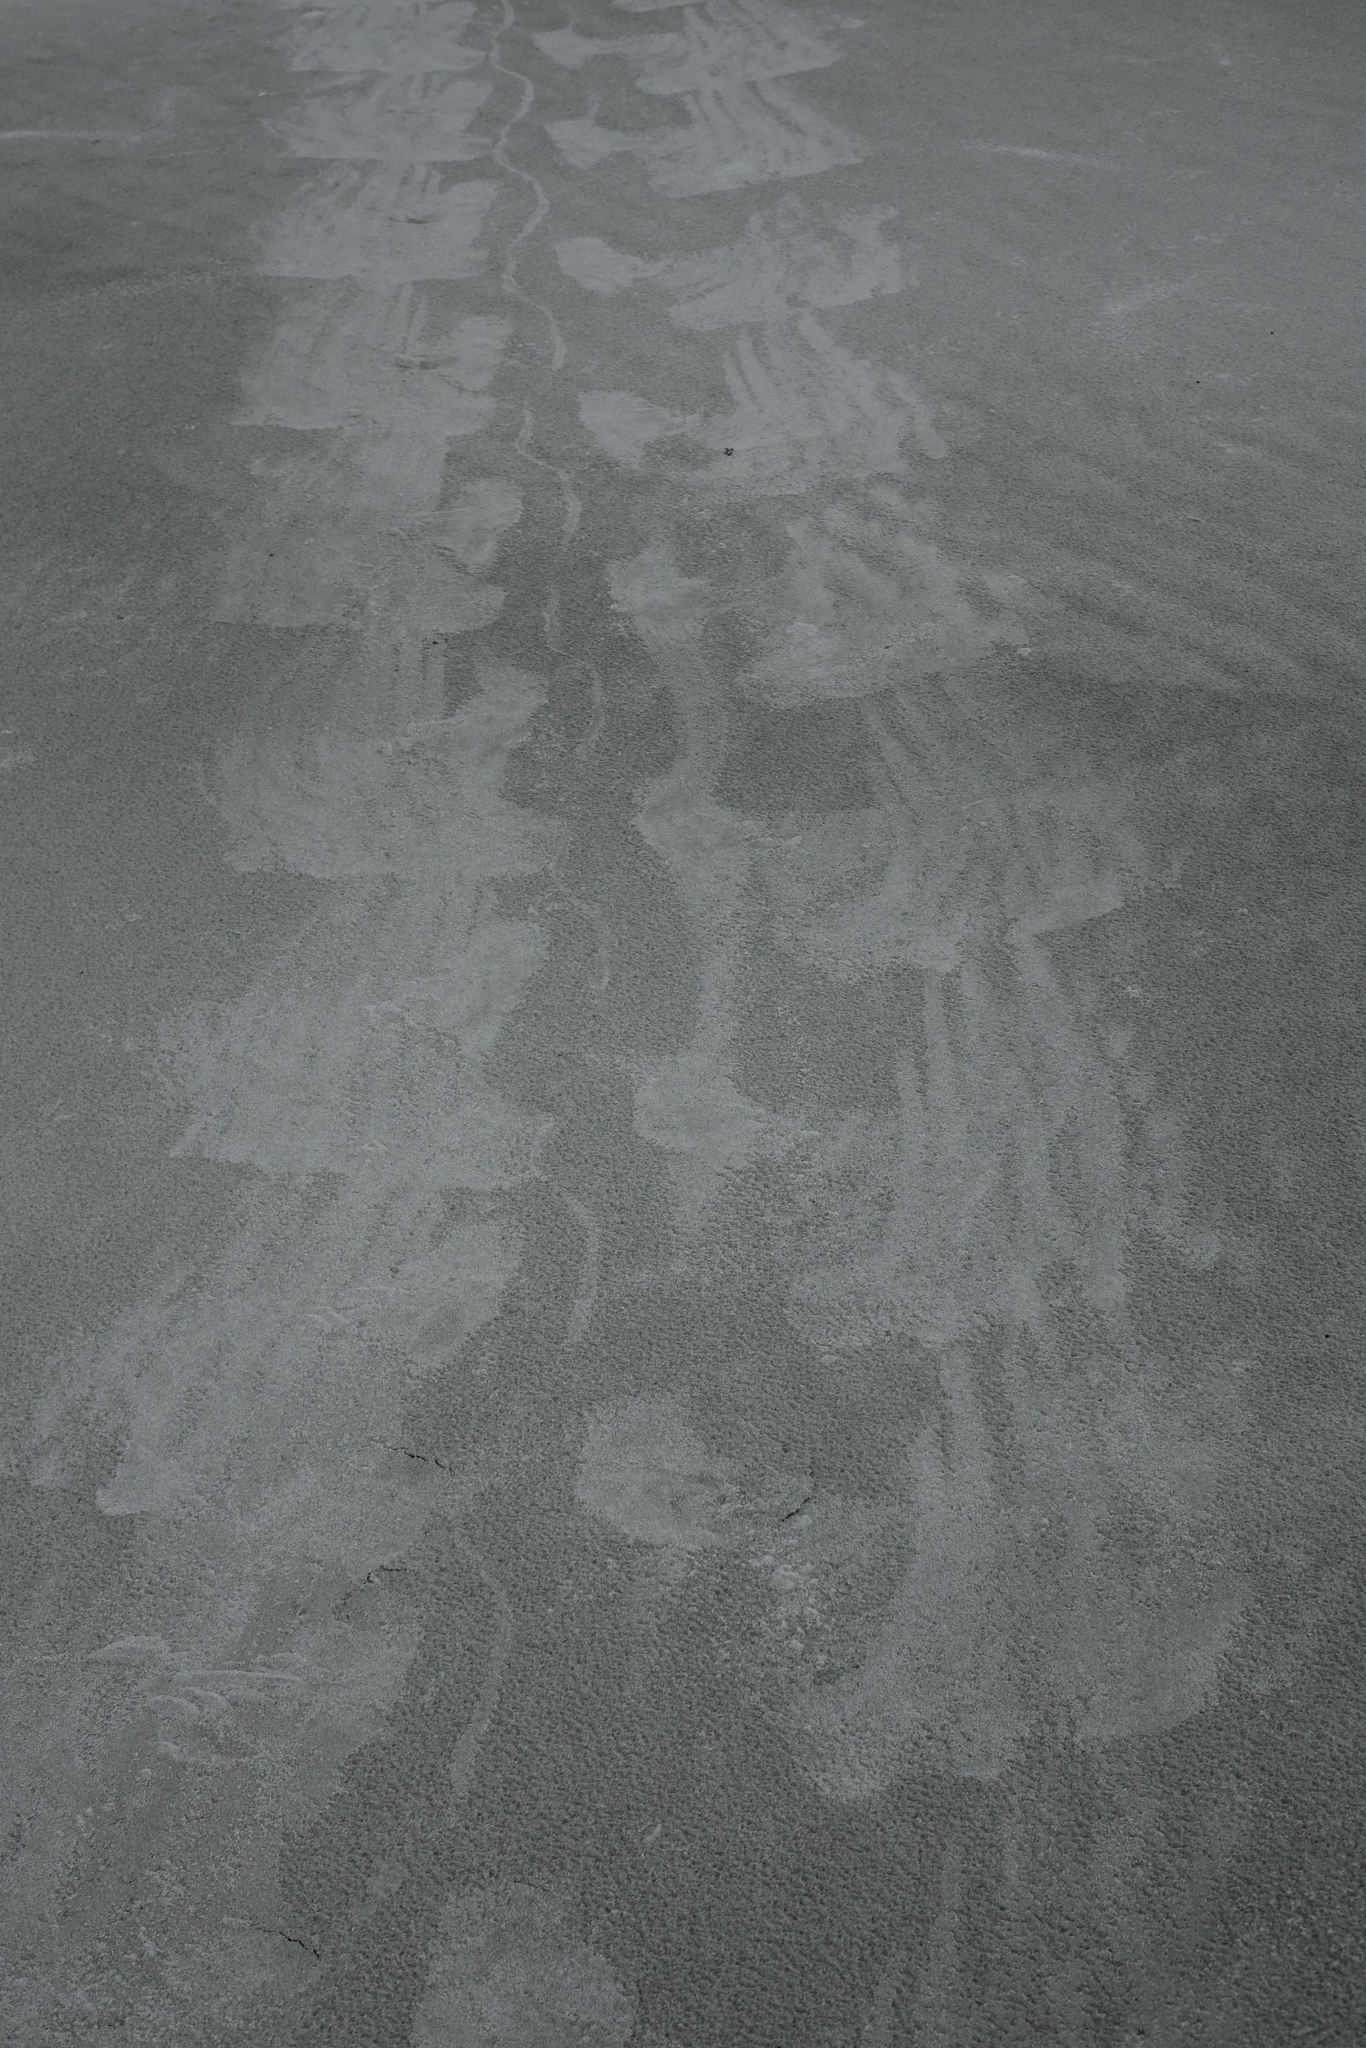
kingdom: Animalia
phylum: Chordata
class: Mammalia
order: Carnivora
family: Otariidae
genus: Phocarctos
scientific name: Phocarctos hookeri
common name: New zealand sea lion
